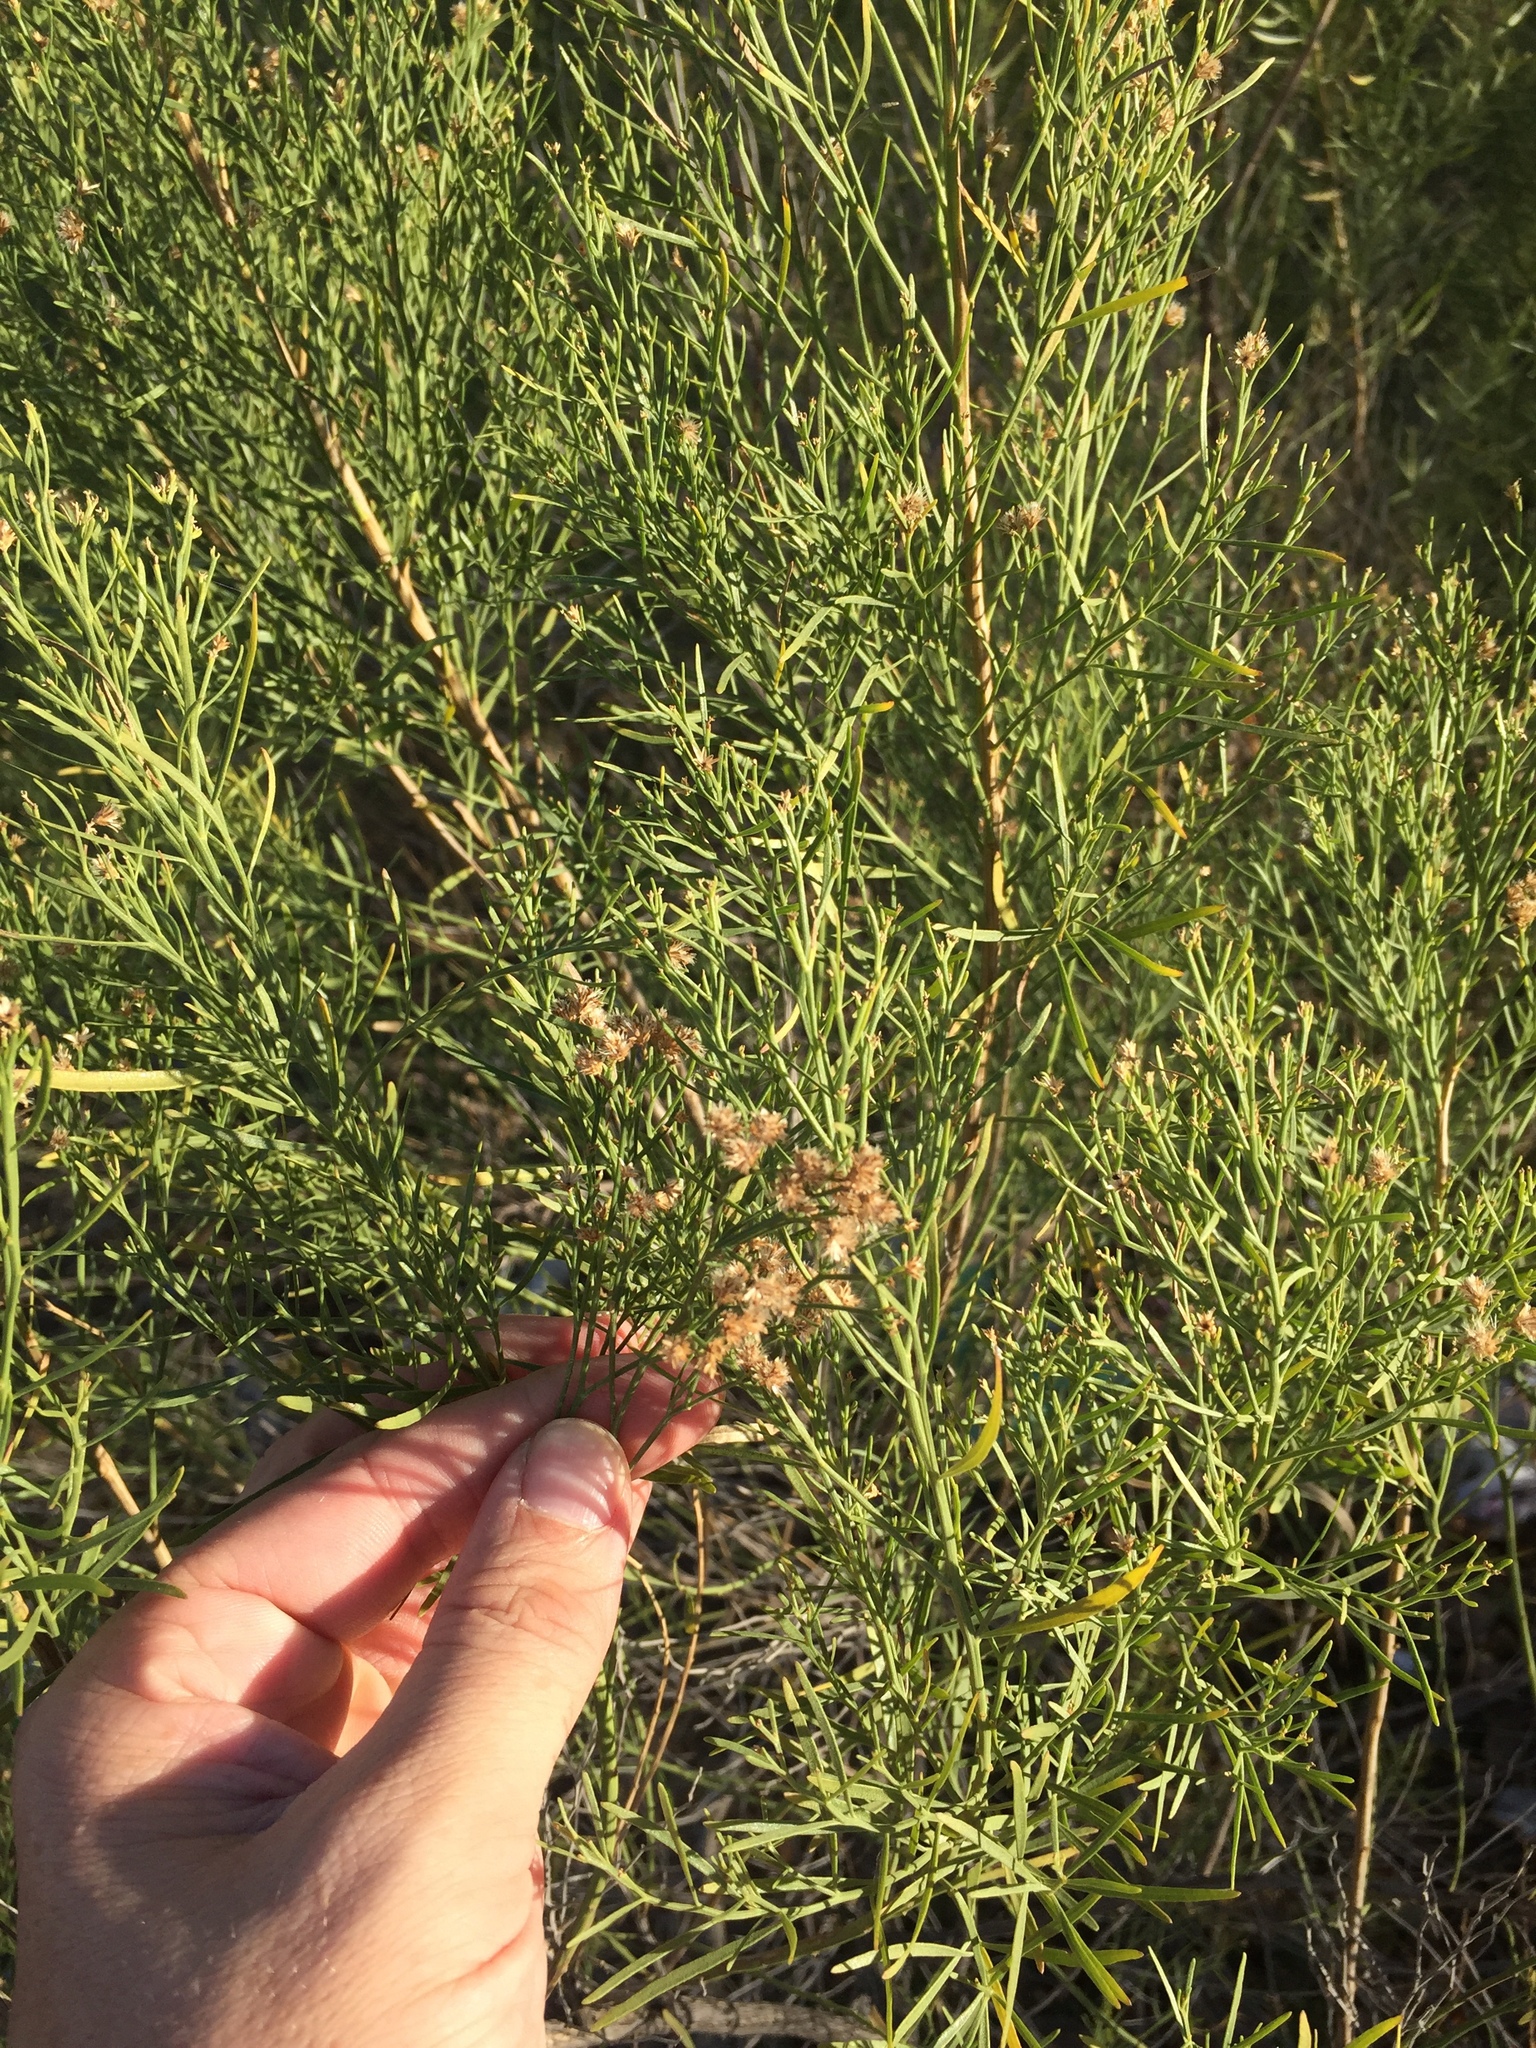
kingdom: Plantae
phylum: Tracheophyta
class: Magnoliopsida
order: Asterales
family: Asteraceae
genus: Baccharis
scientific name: Baccharis neglecta
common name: Roosevelt-weed
